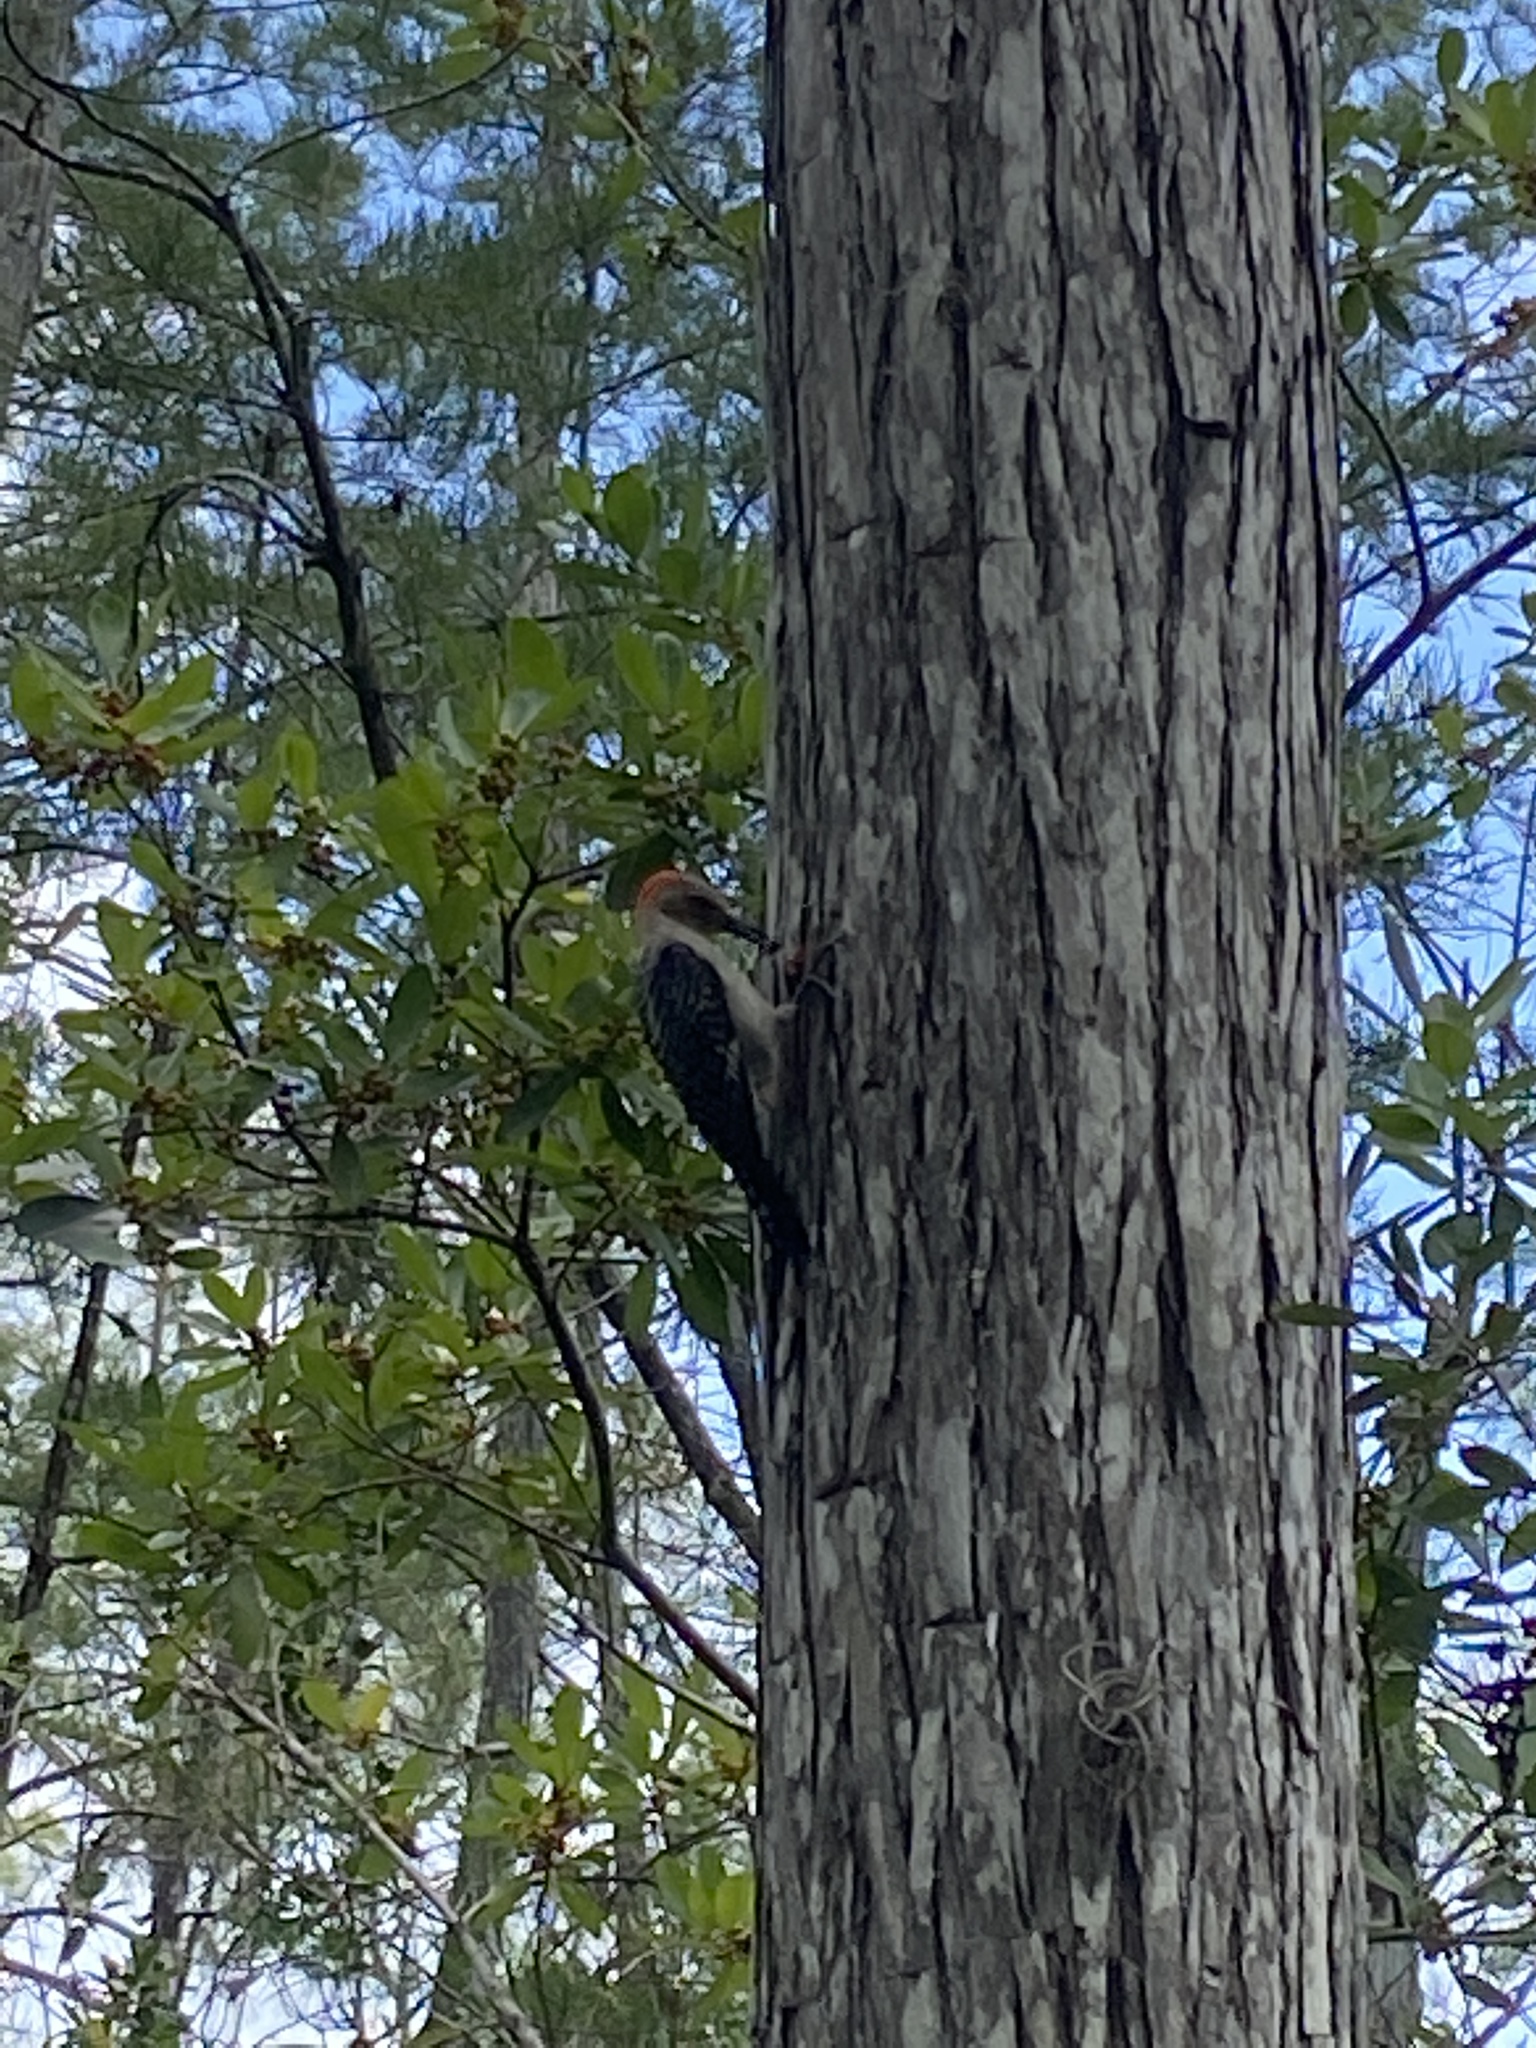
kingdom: Animalia
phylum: Chordata
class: Aves
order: Piciformes
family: Picidae
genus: Melanerpes
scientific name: Melanerpes carolinus
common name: Red-bellied woodpecker
